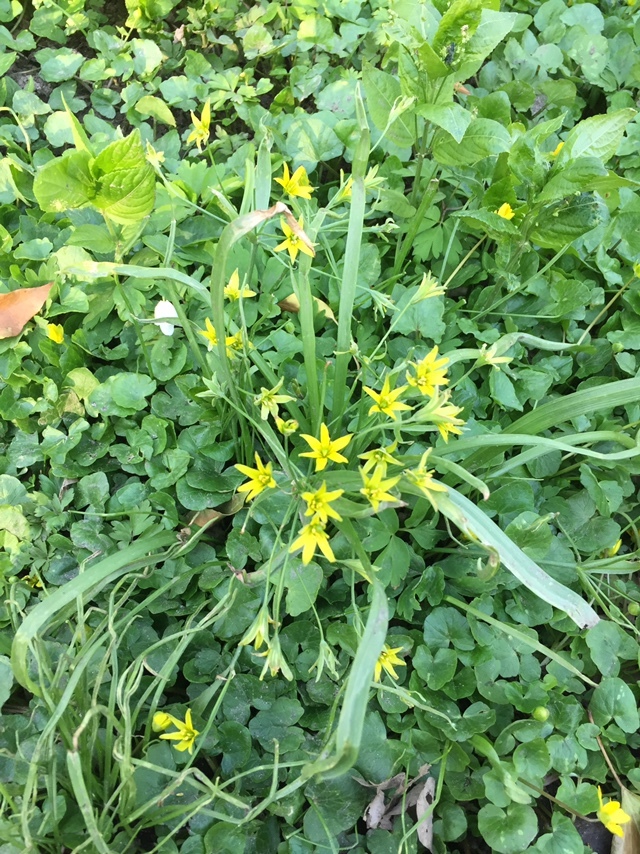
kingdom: Plantae
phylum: Tracheophyta
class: Liliopsida
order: Liliales
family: Liliaceae
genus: Gagea
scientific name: Gagea lutea
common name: Yellow star-of-bethlehem
